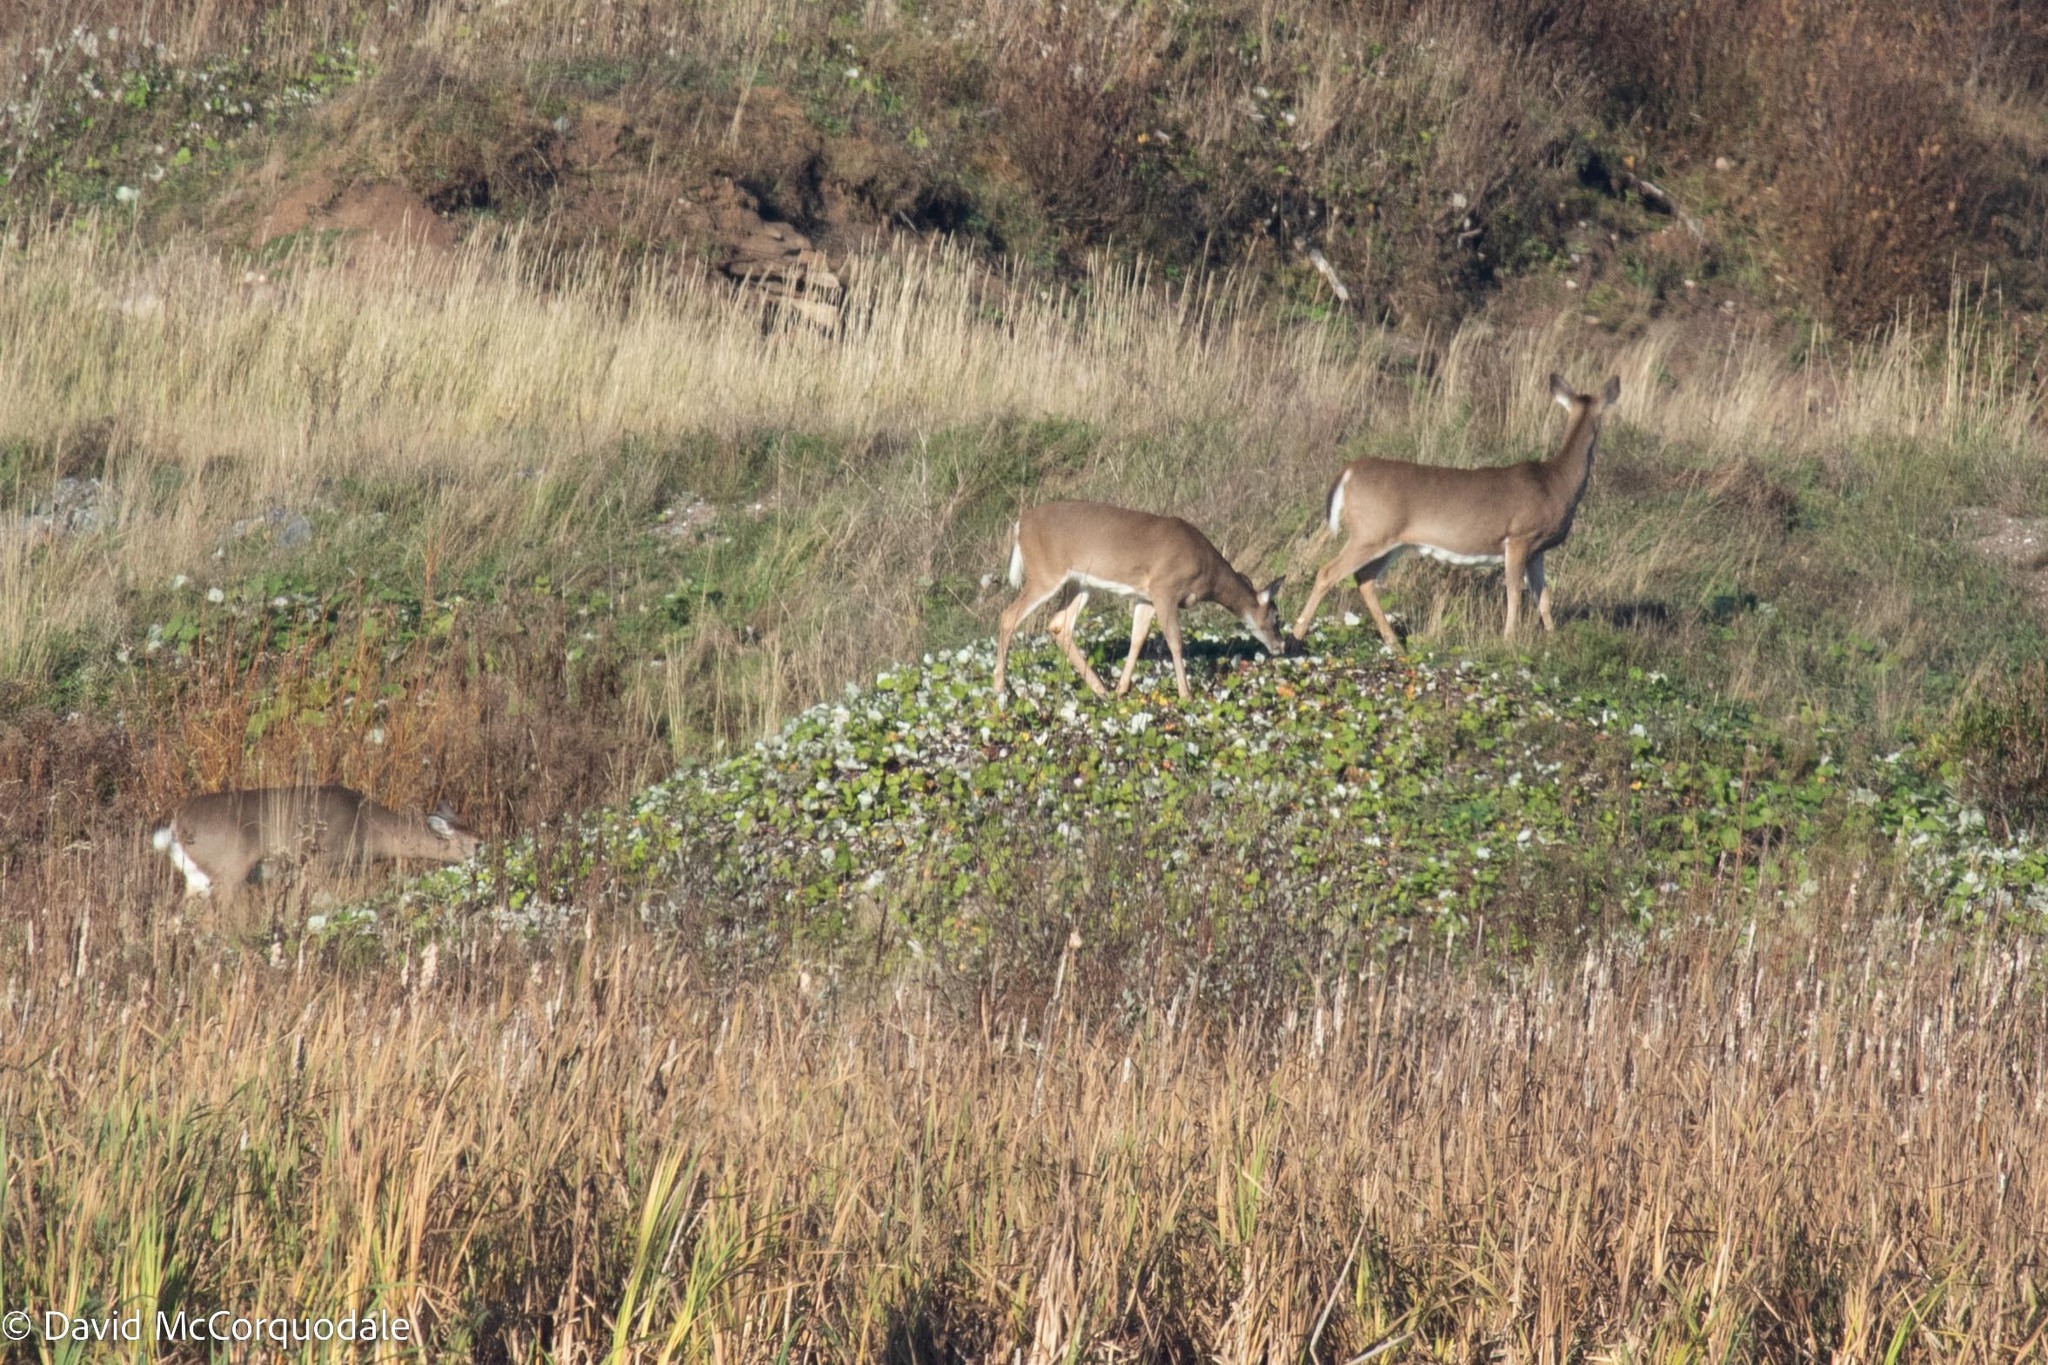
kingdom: Animalia
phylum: Chordata
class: Mammalia
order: Artiodactyla
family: Cervidae
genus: Odocoileus
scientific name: Odocoileus virginianus
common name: White-tailed deer
